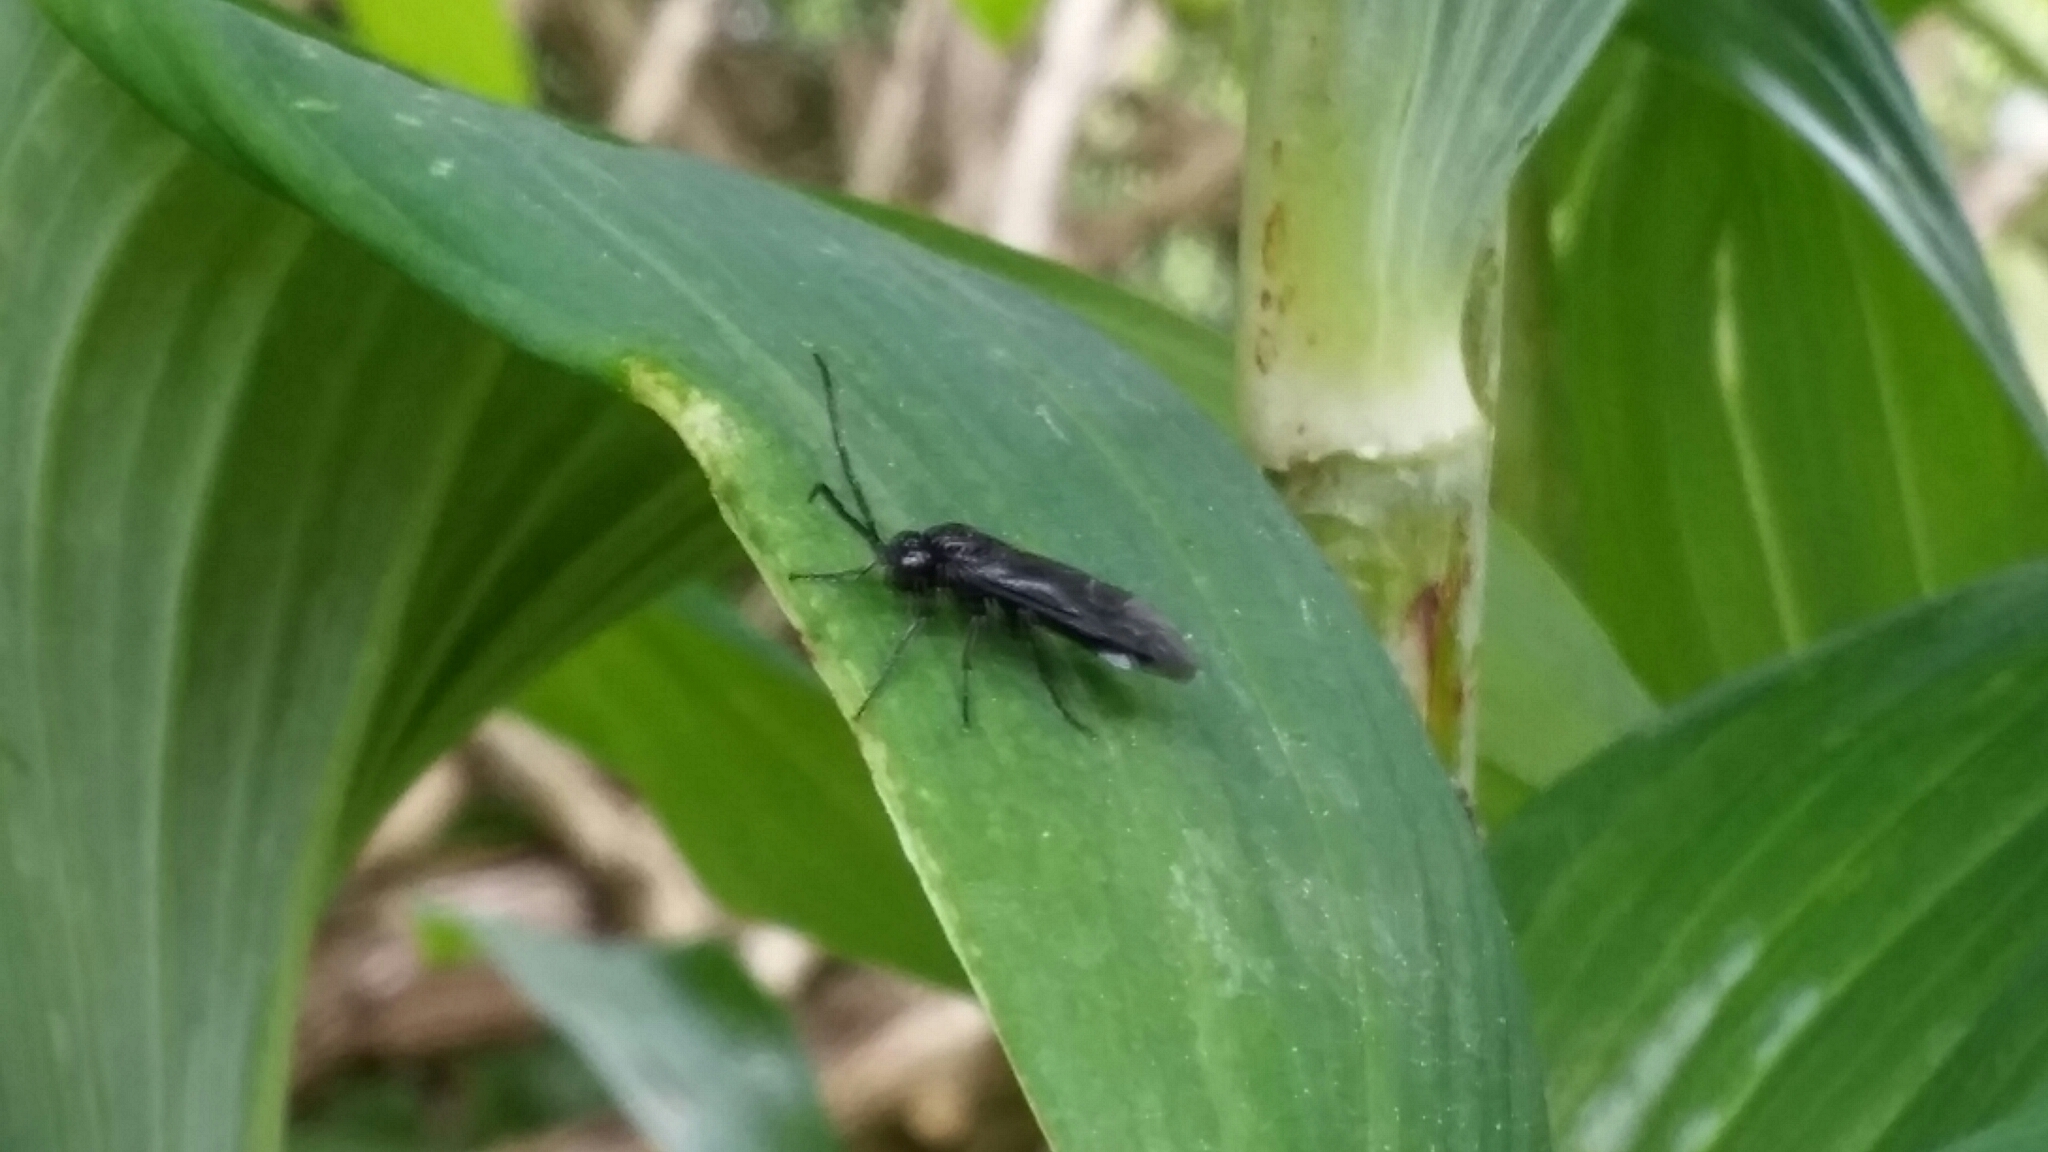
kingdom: Animalia
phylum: Arthropoda
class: Insecta
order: Hymenoptera
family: Tenthredinidae
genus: Phymatocera
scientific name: Phymatocera aterrima
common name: Solomon's-seal sawfly
